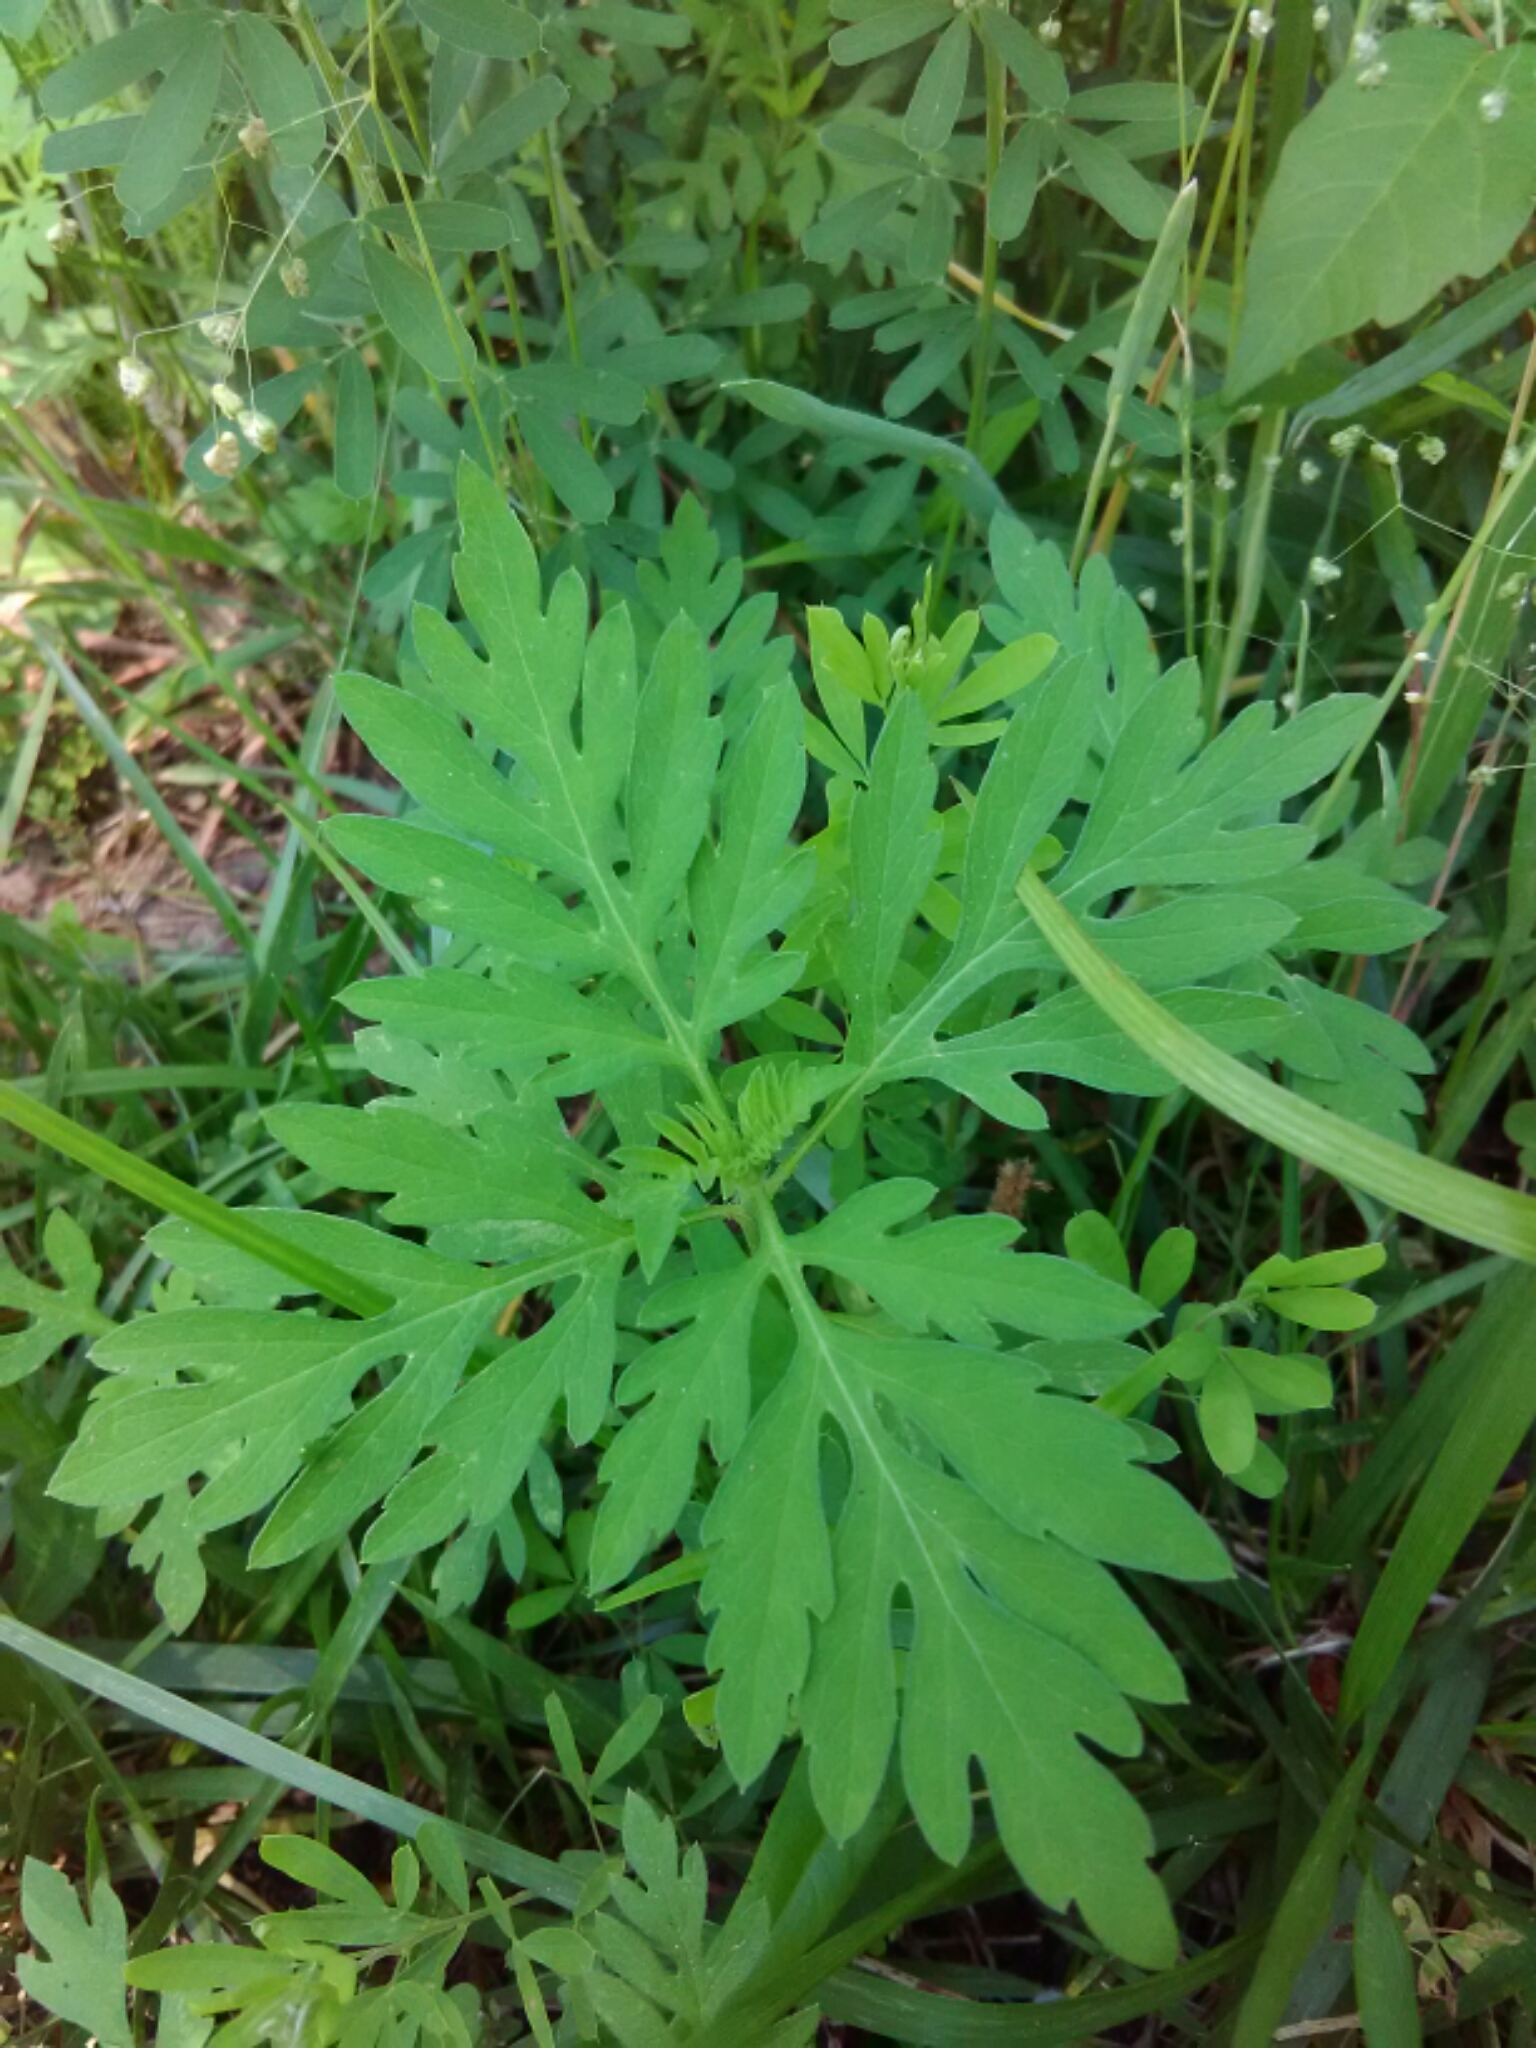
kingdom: Plantae
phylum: Tracheophyta
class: Magnoliopsida
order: Asterales
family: Asteraceae
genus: Ambrosia
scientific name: Ambrosia artemisiifolia
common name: Annual ragweed
